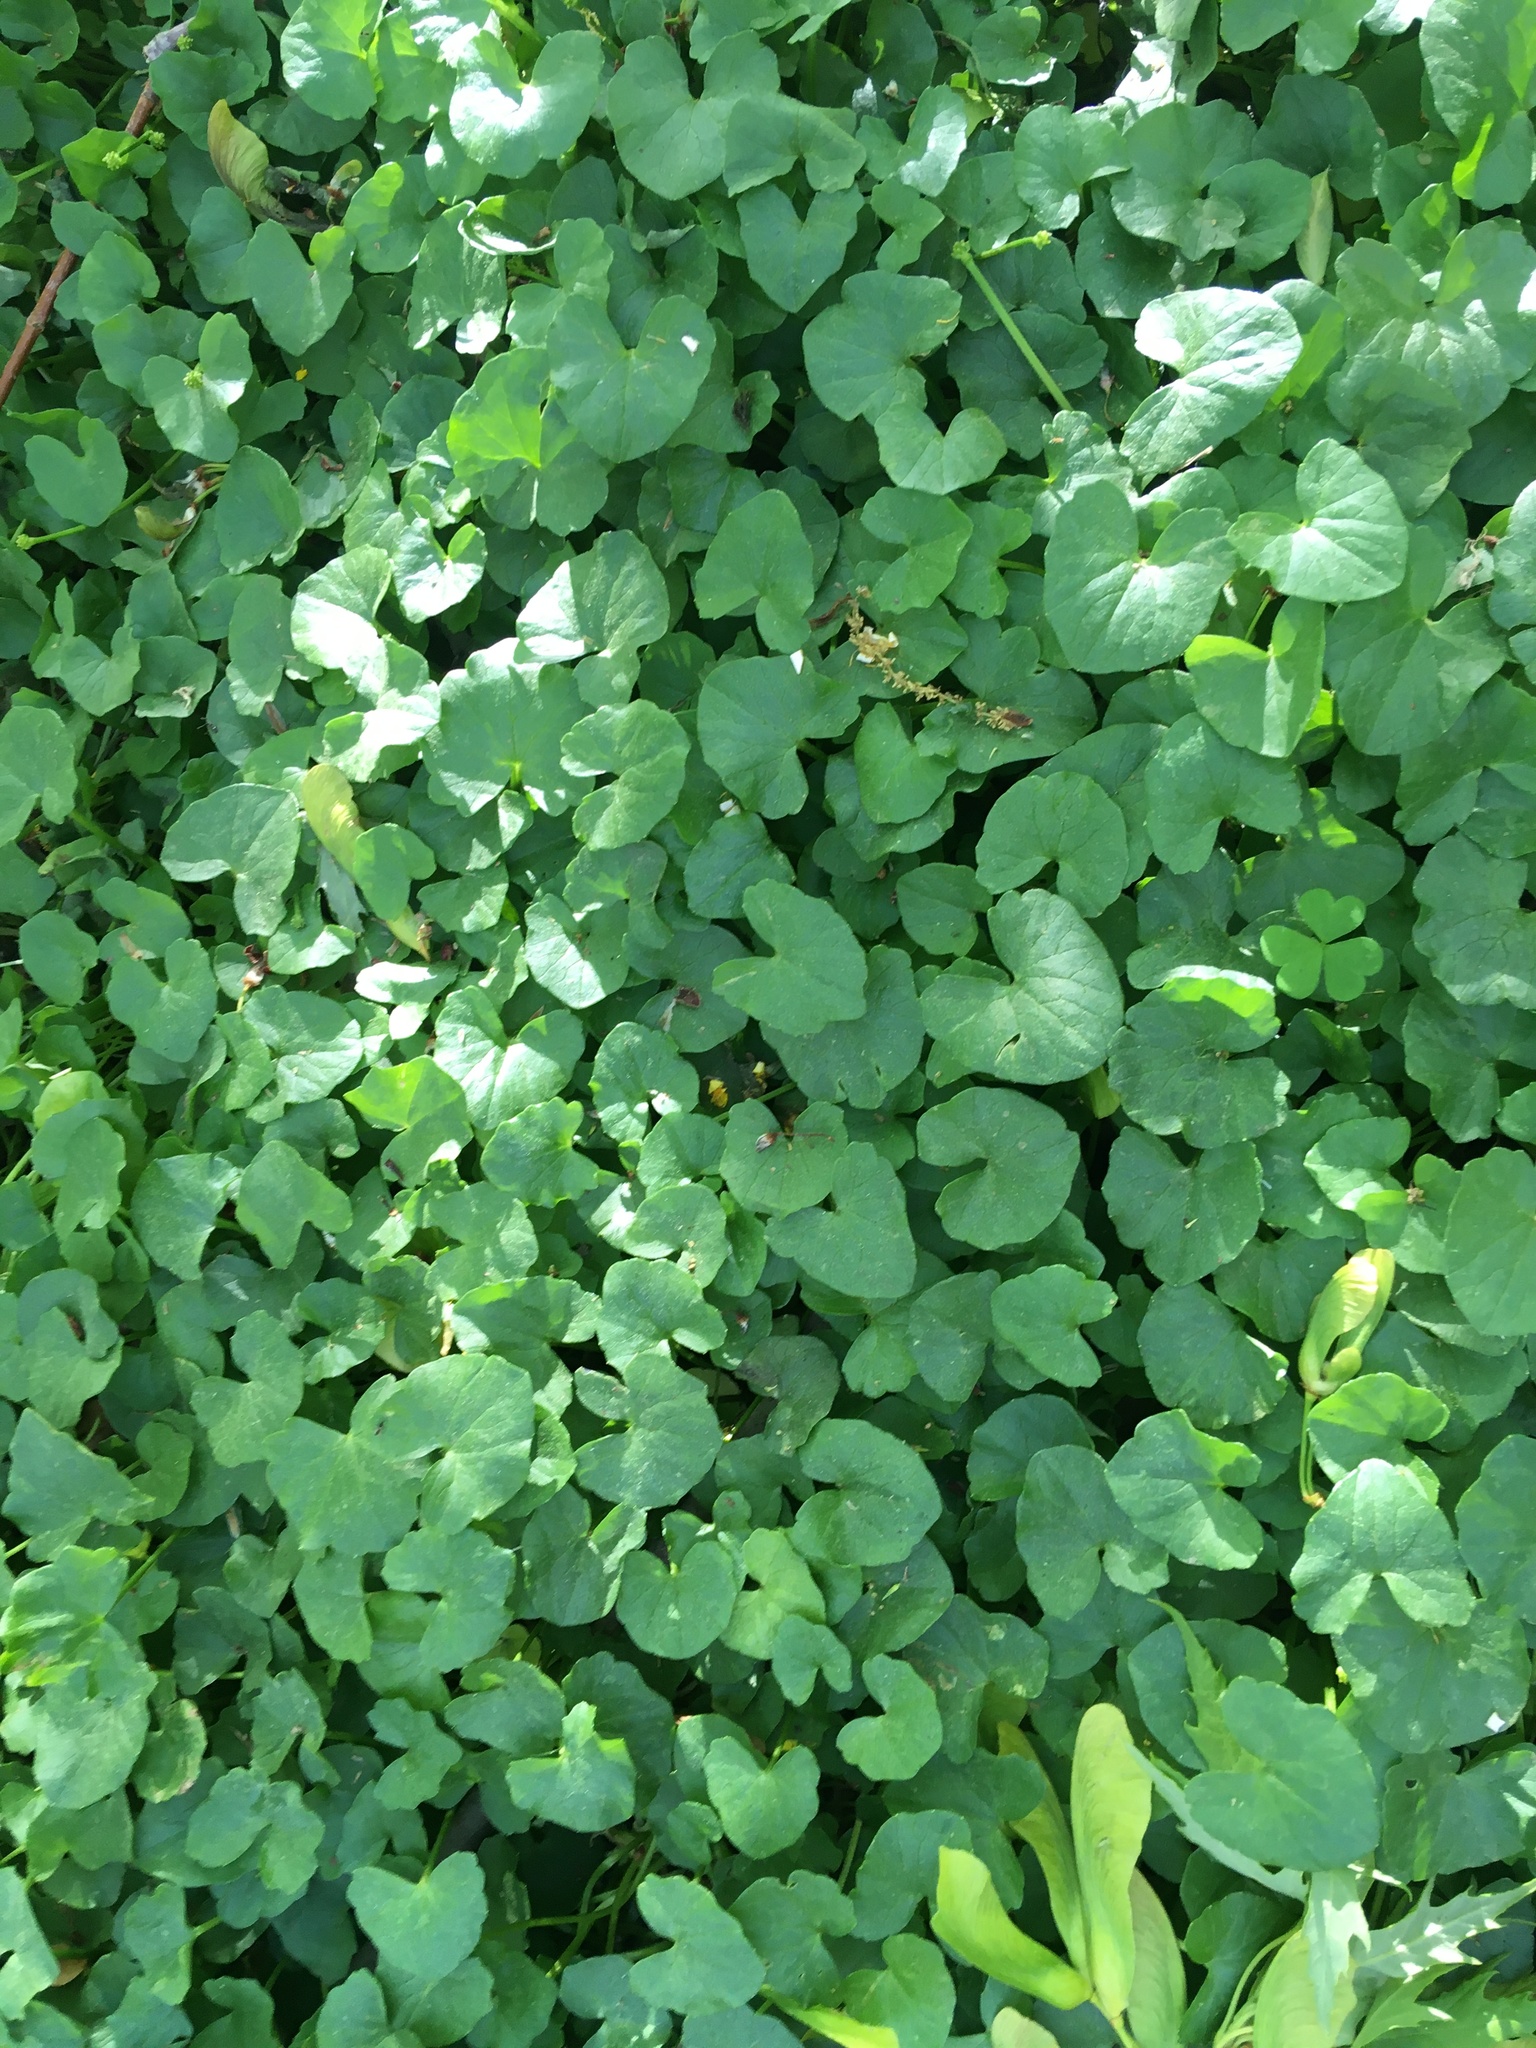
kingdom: Plantae
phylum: Tracheophyta
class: Magnoliopsida
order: Ranunculales
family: Ranunculaceae
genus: Ficaria
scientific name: Ficaria verna
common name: Lesser celandine
